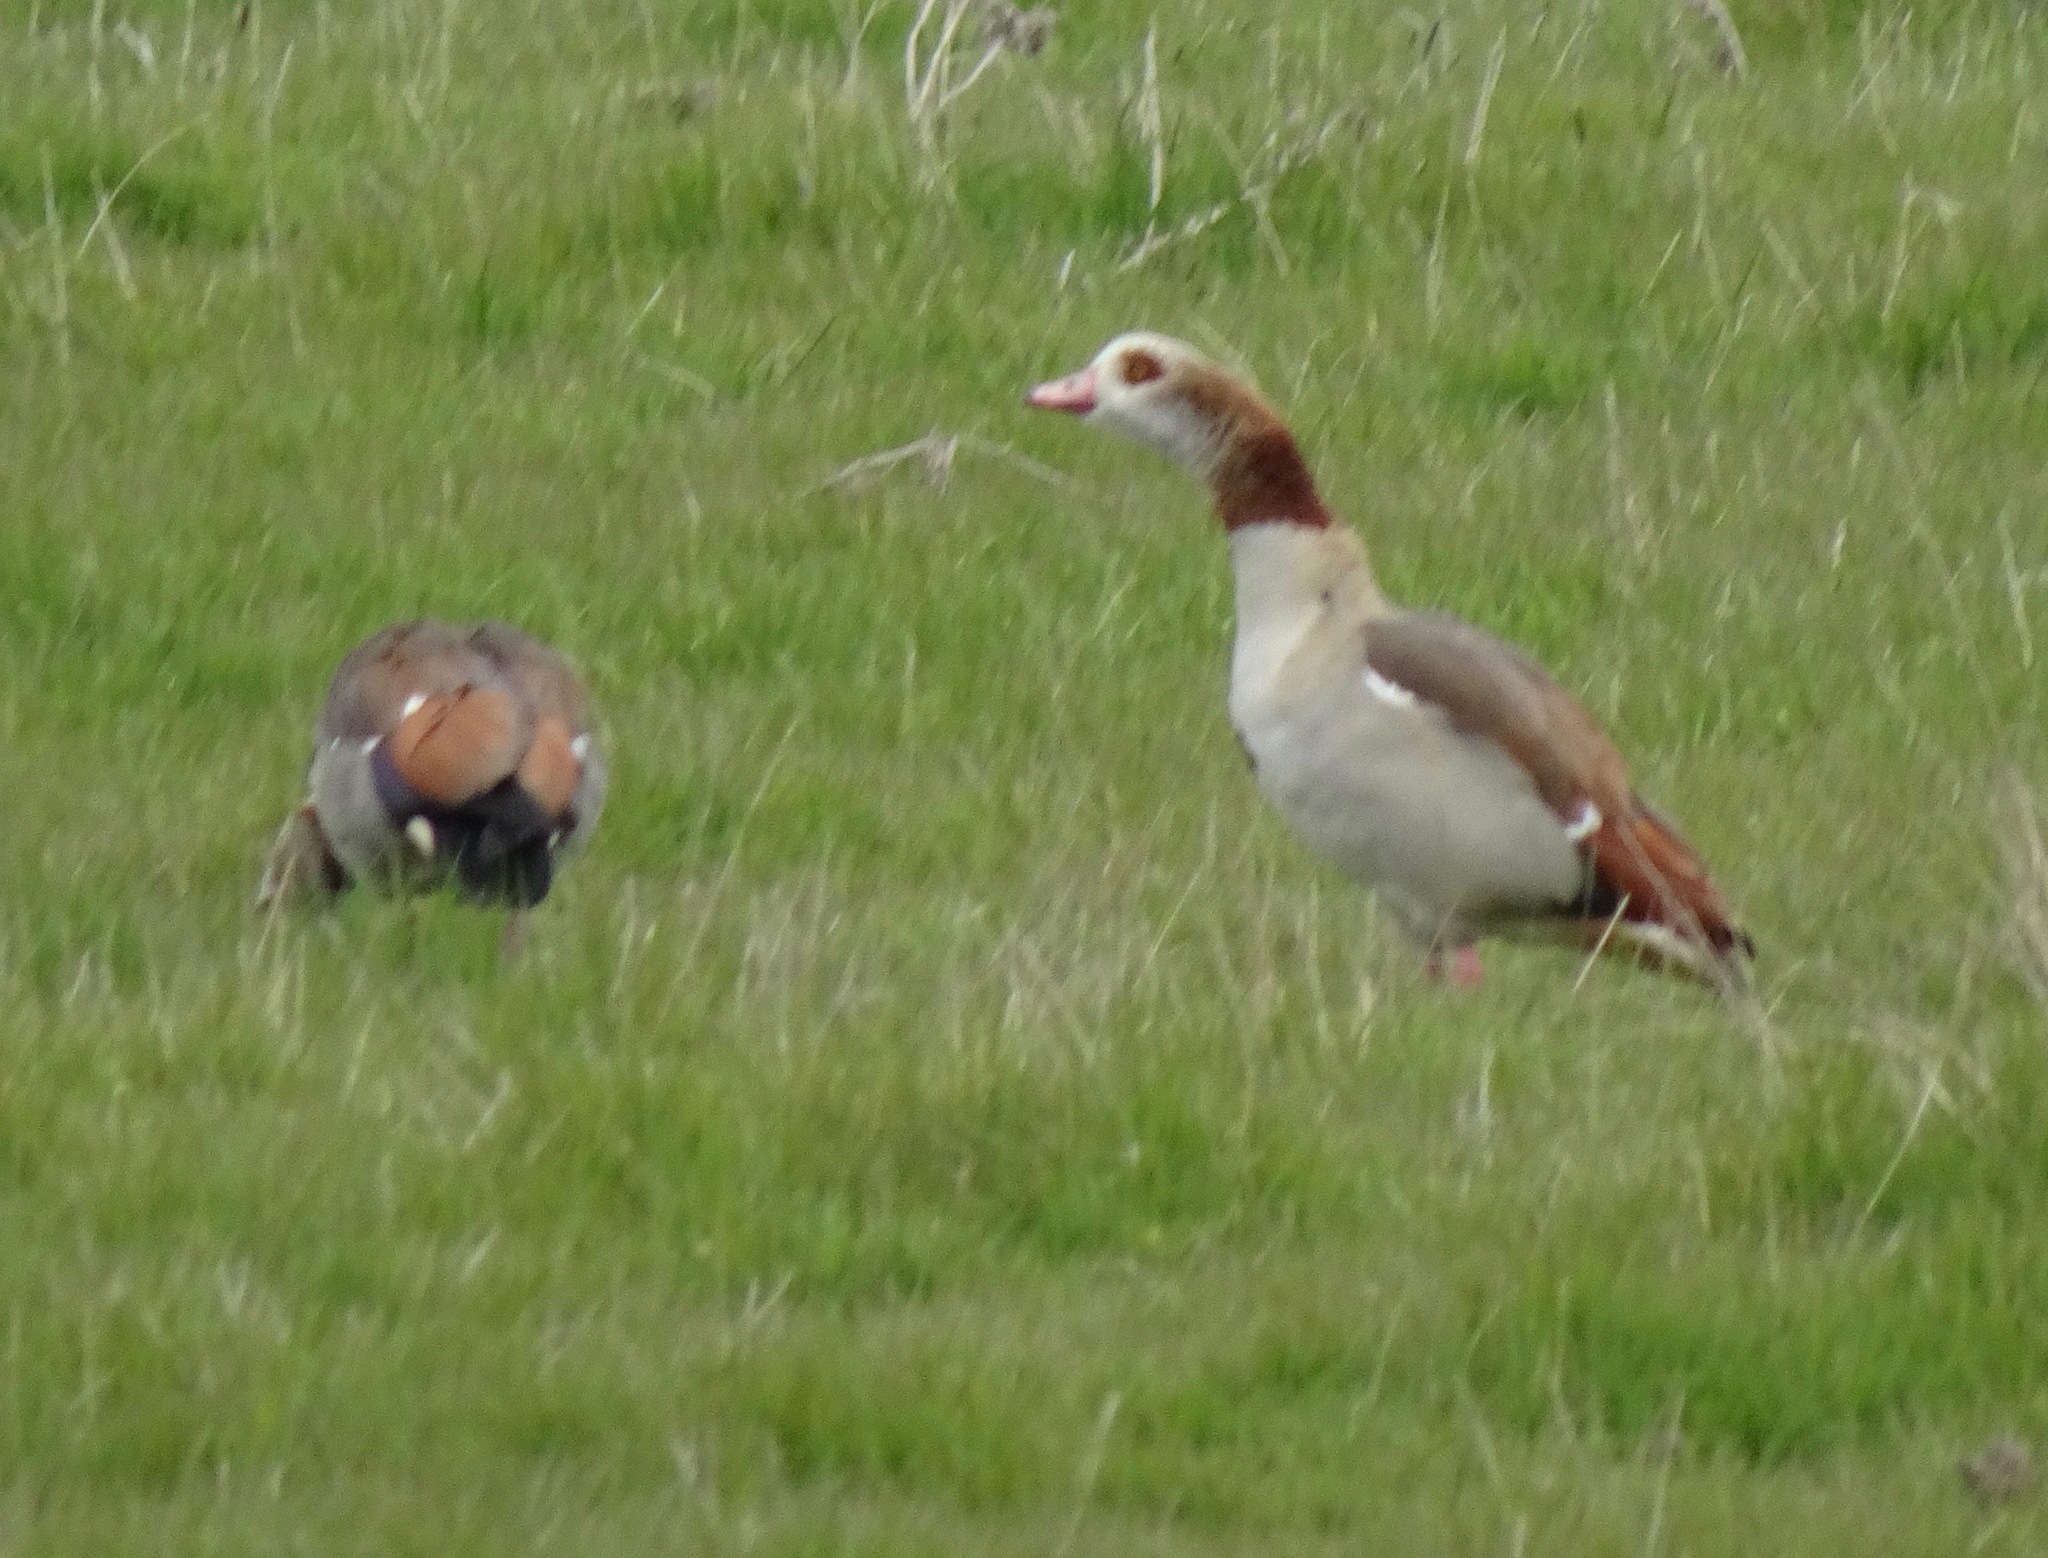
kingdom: Animalia
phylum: Chordata
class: Aves
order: Anseriformes
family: Anatidae
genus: Alopochen
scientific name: Alopochen aegyptiaca
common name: Egyptian goose
